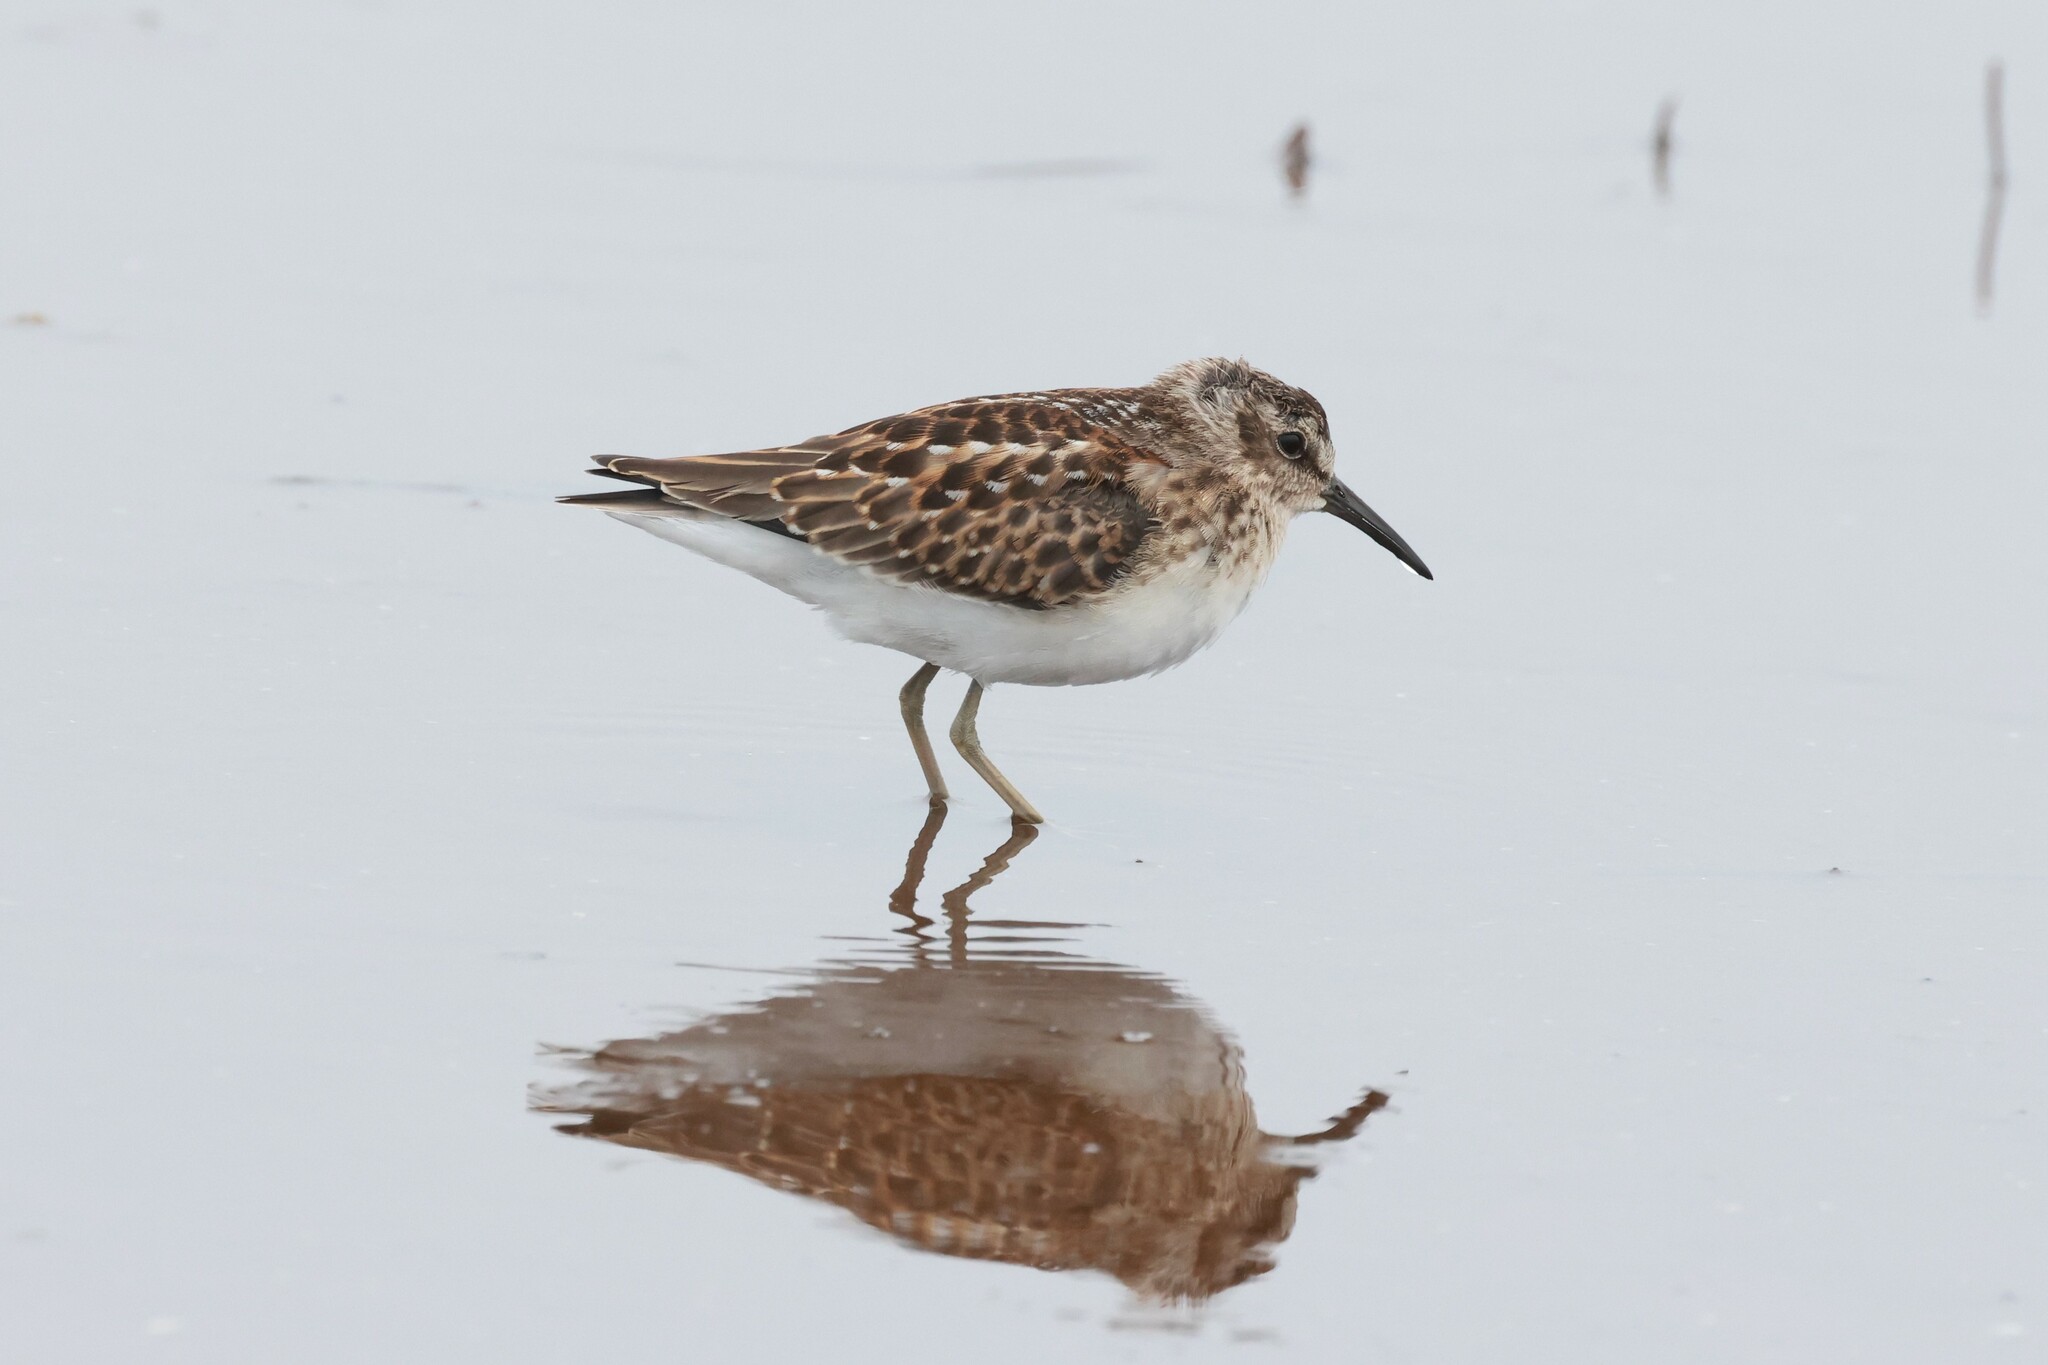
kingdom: Animalia
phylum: Chordata
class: Aves
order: Charadriiformes
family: Scolopacidae
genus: Calidris
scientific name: Calidris minutilla
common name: Least sandpiper
